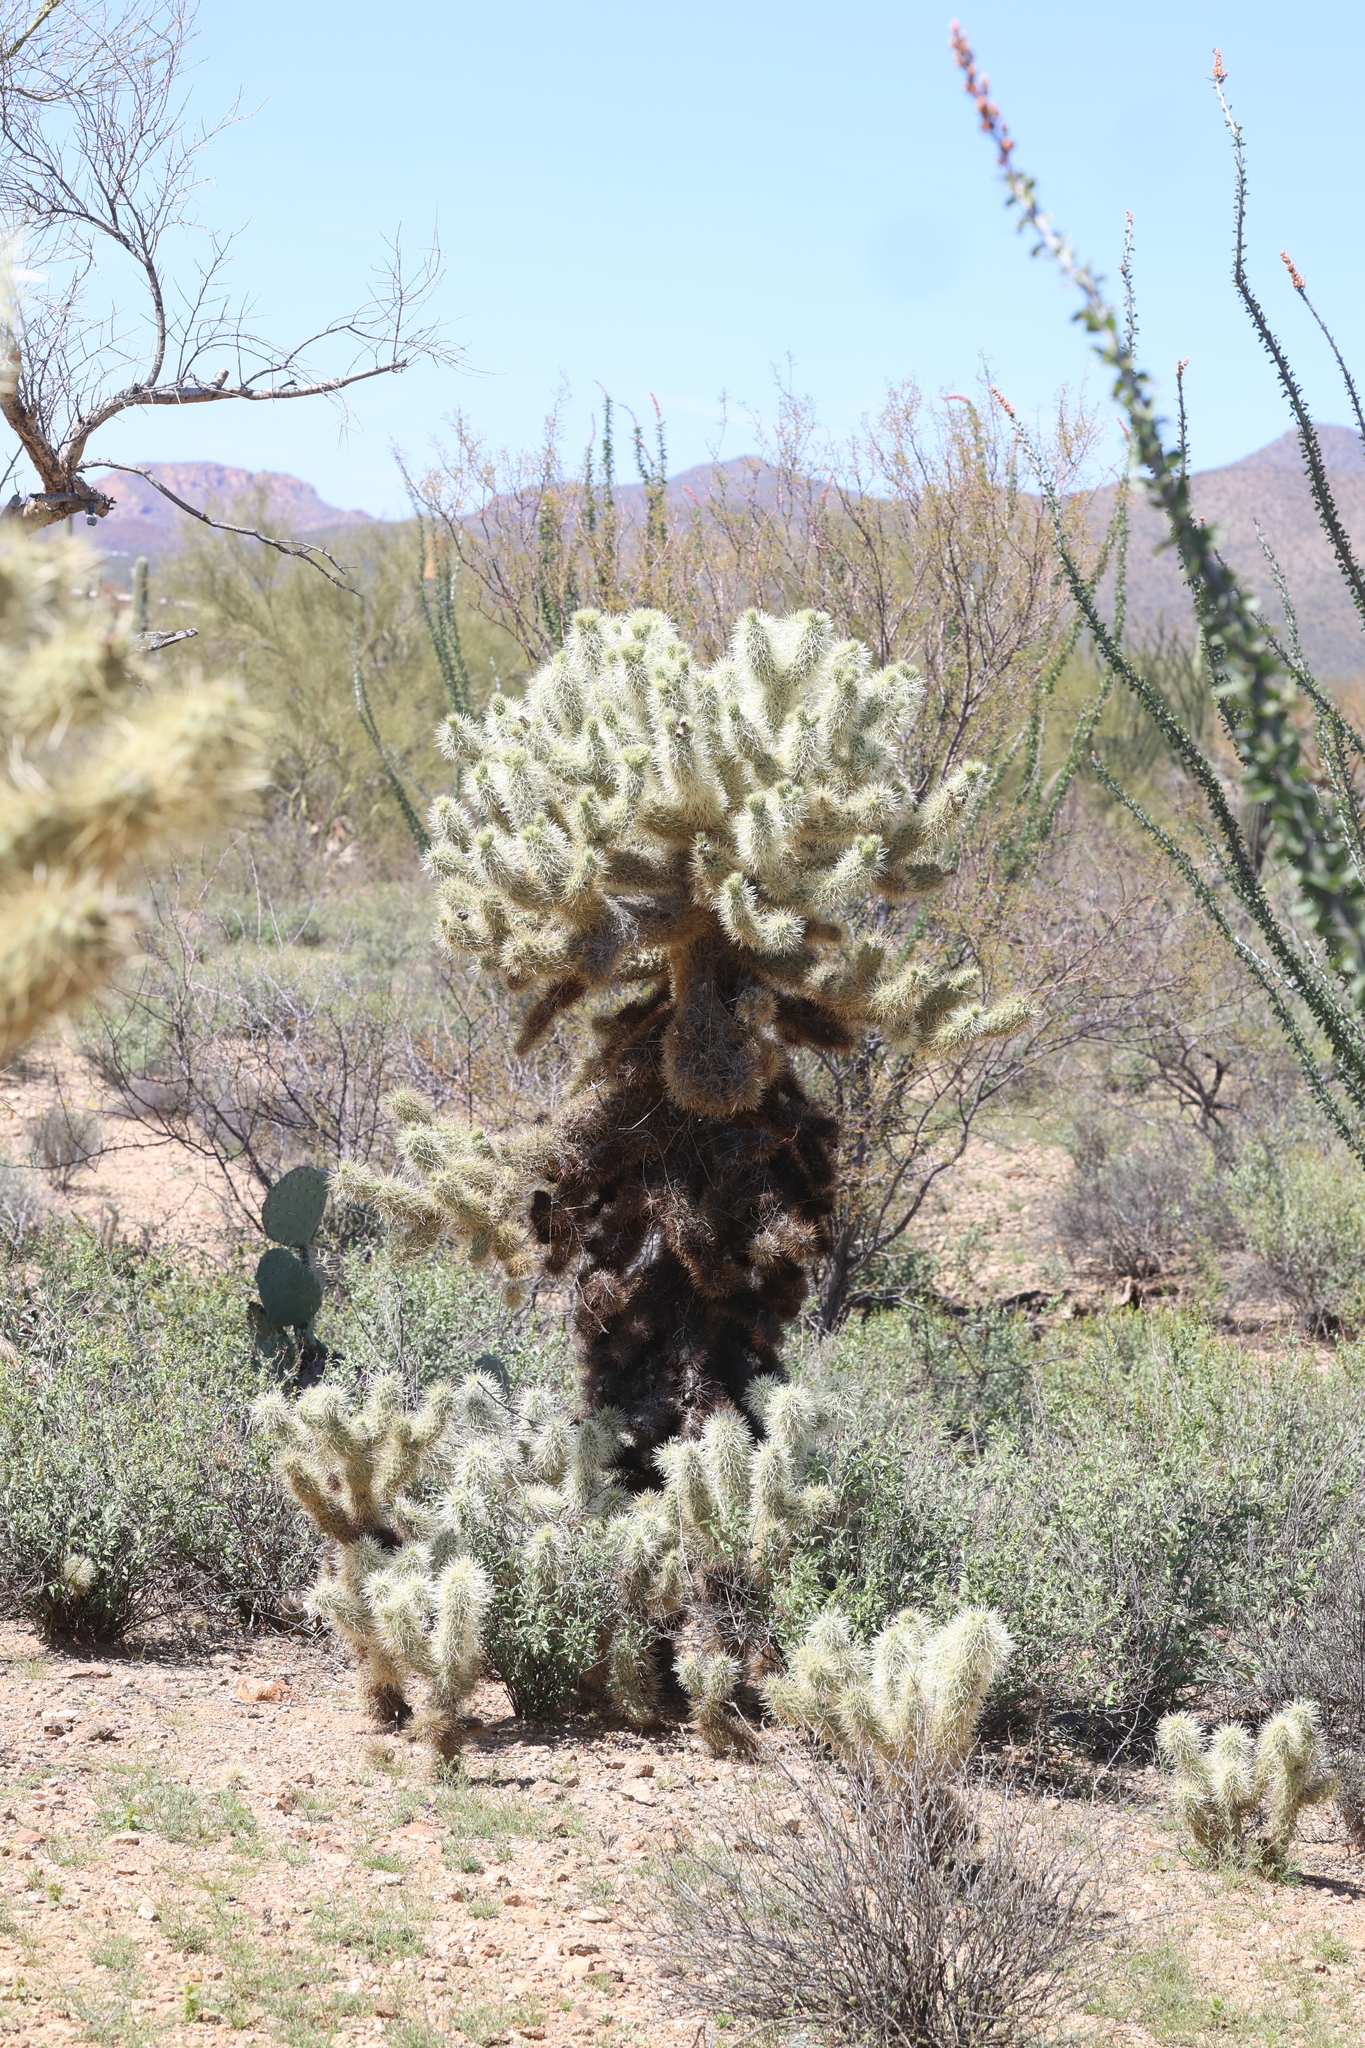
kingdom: Plantae
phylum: Tracheophyta
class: Magnoliopsida
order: Caryophyllales
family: Cactaceae
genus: Cylindropuntia
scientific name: Cylindropuntia fosbergii
